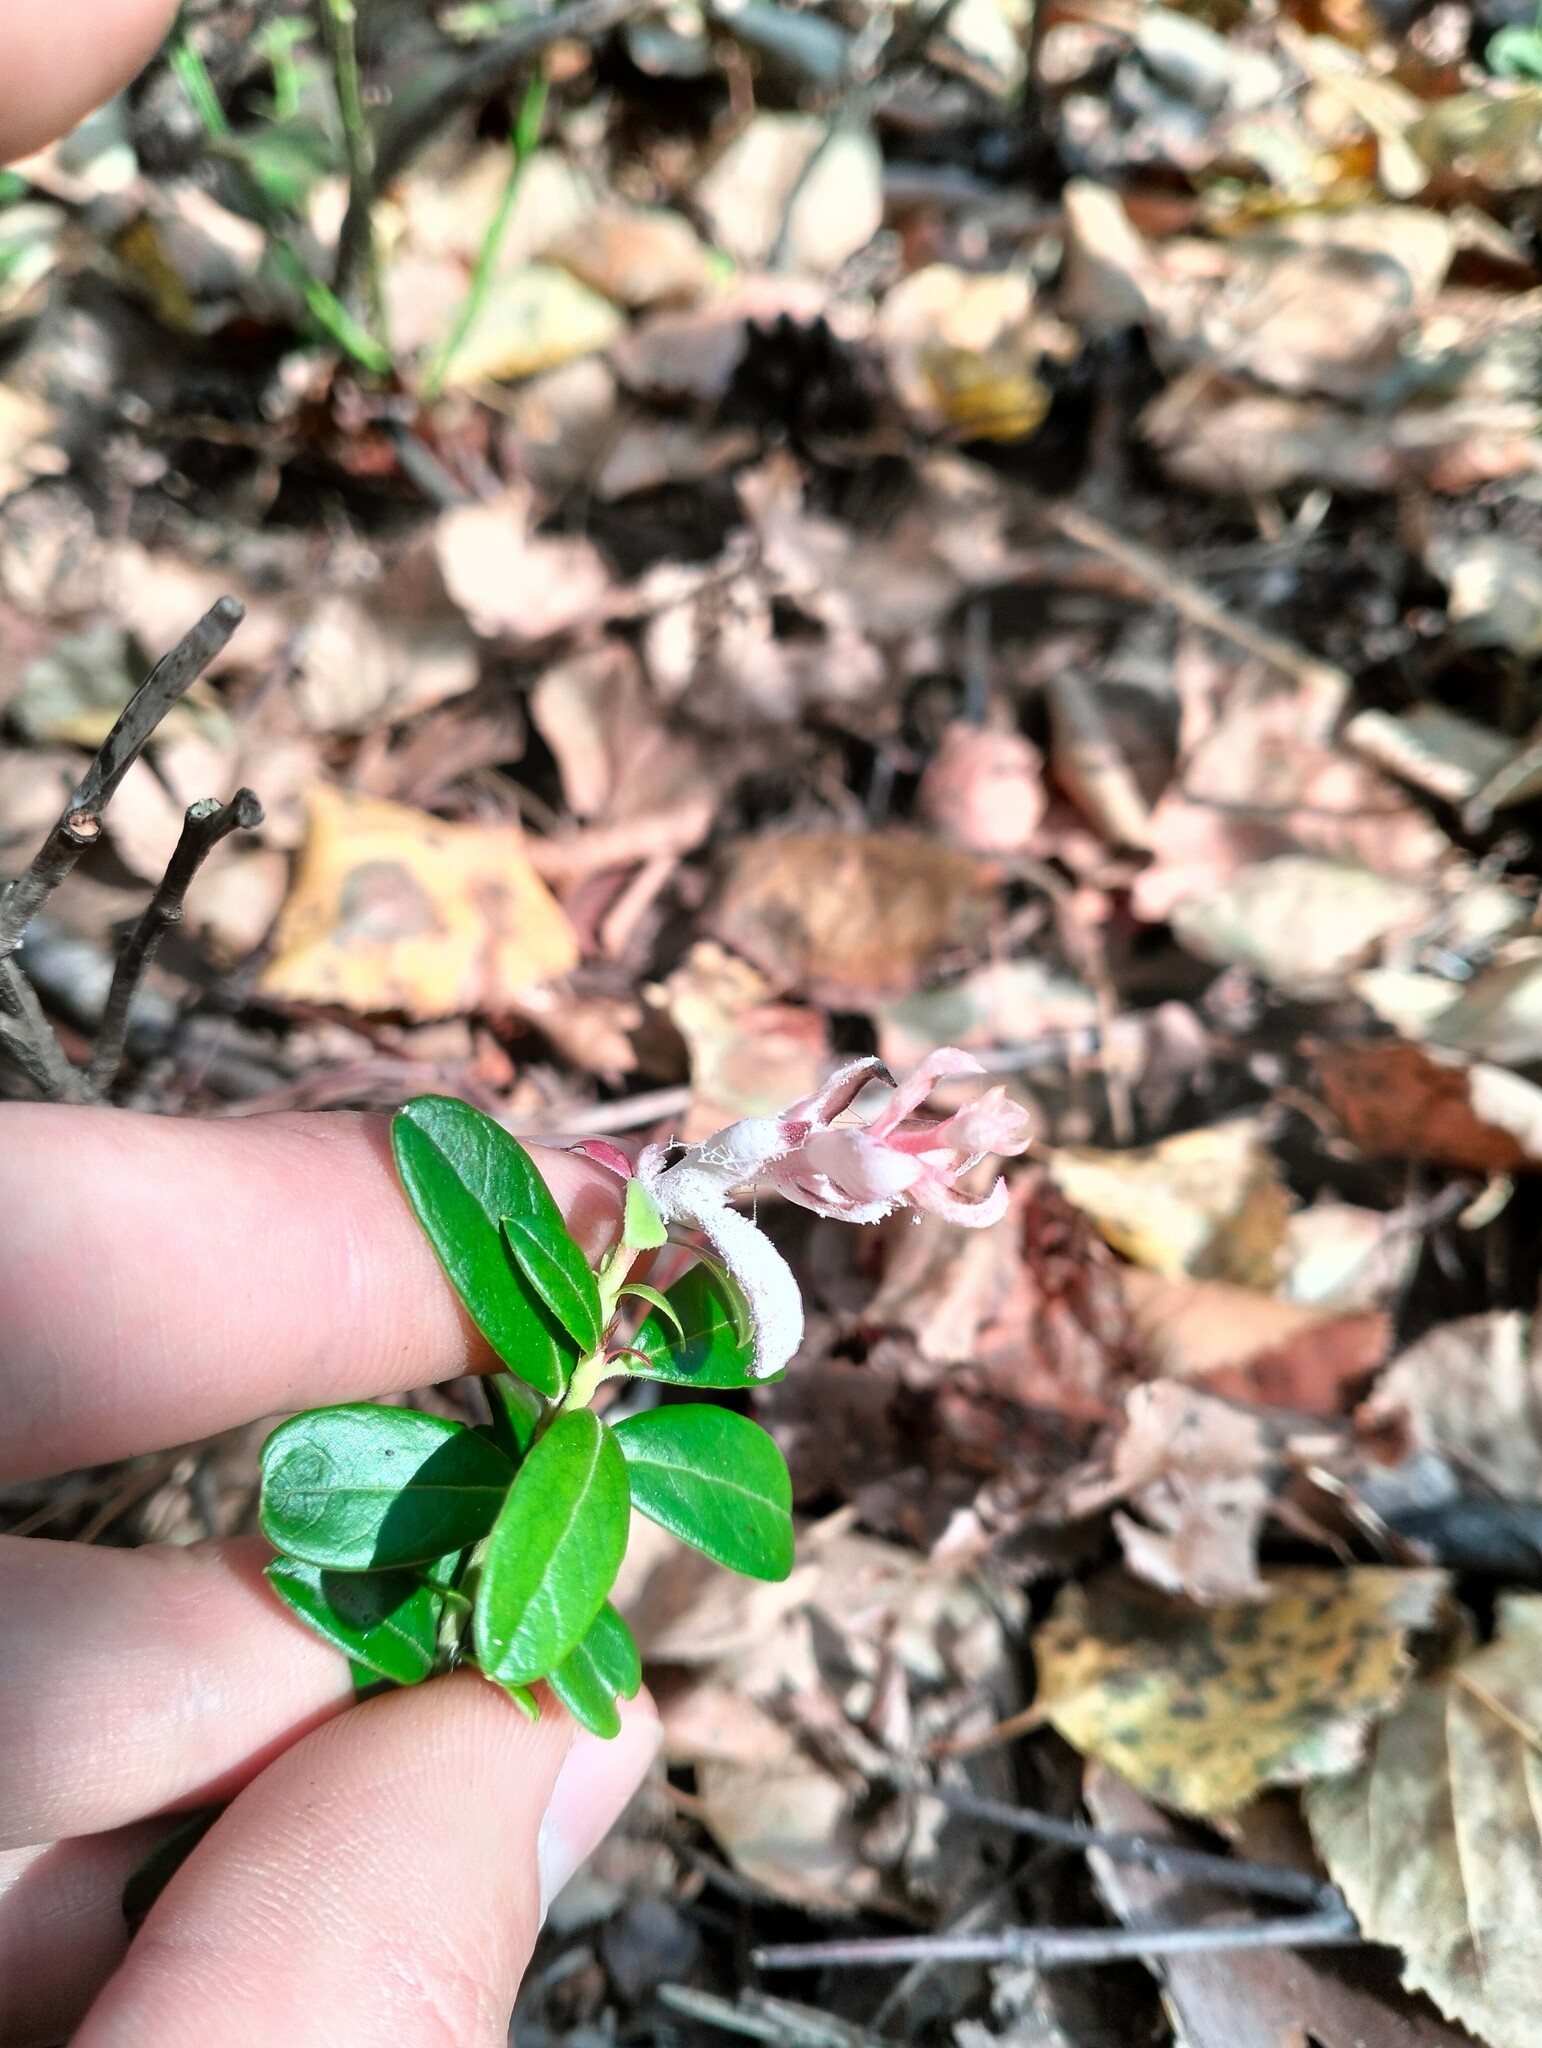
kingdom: Fungi
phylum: Basidiomycota
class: Exobasidiomycetes
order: Exobasidiales
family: Exobasidiaceae
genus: Exobasidium
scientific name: Exobasidium vaccinii
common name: Cowberry redleaf
